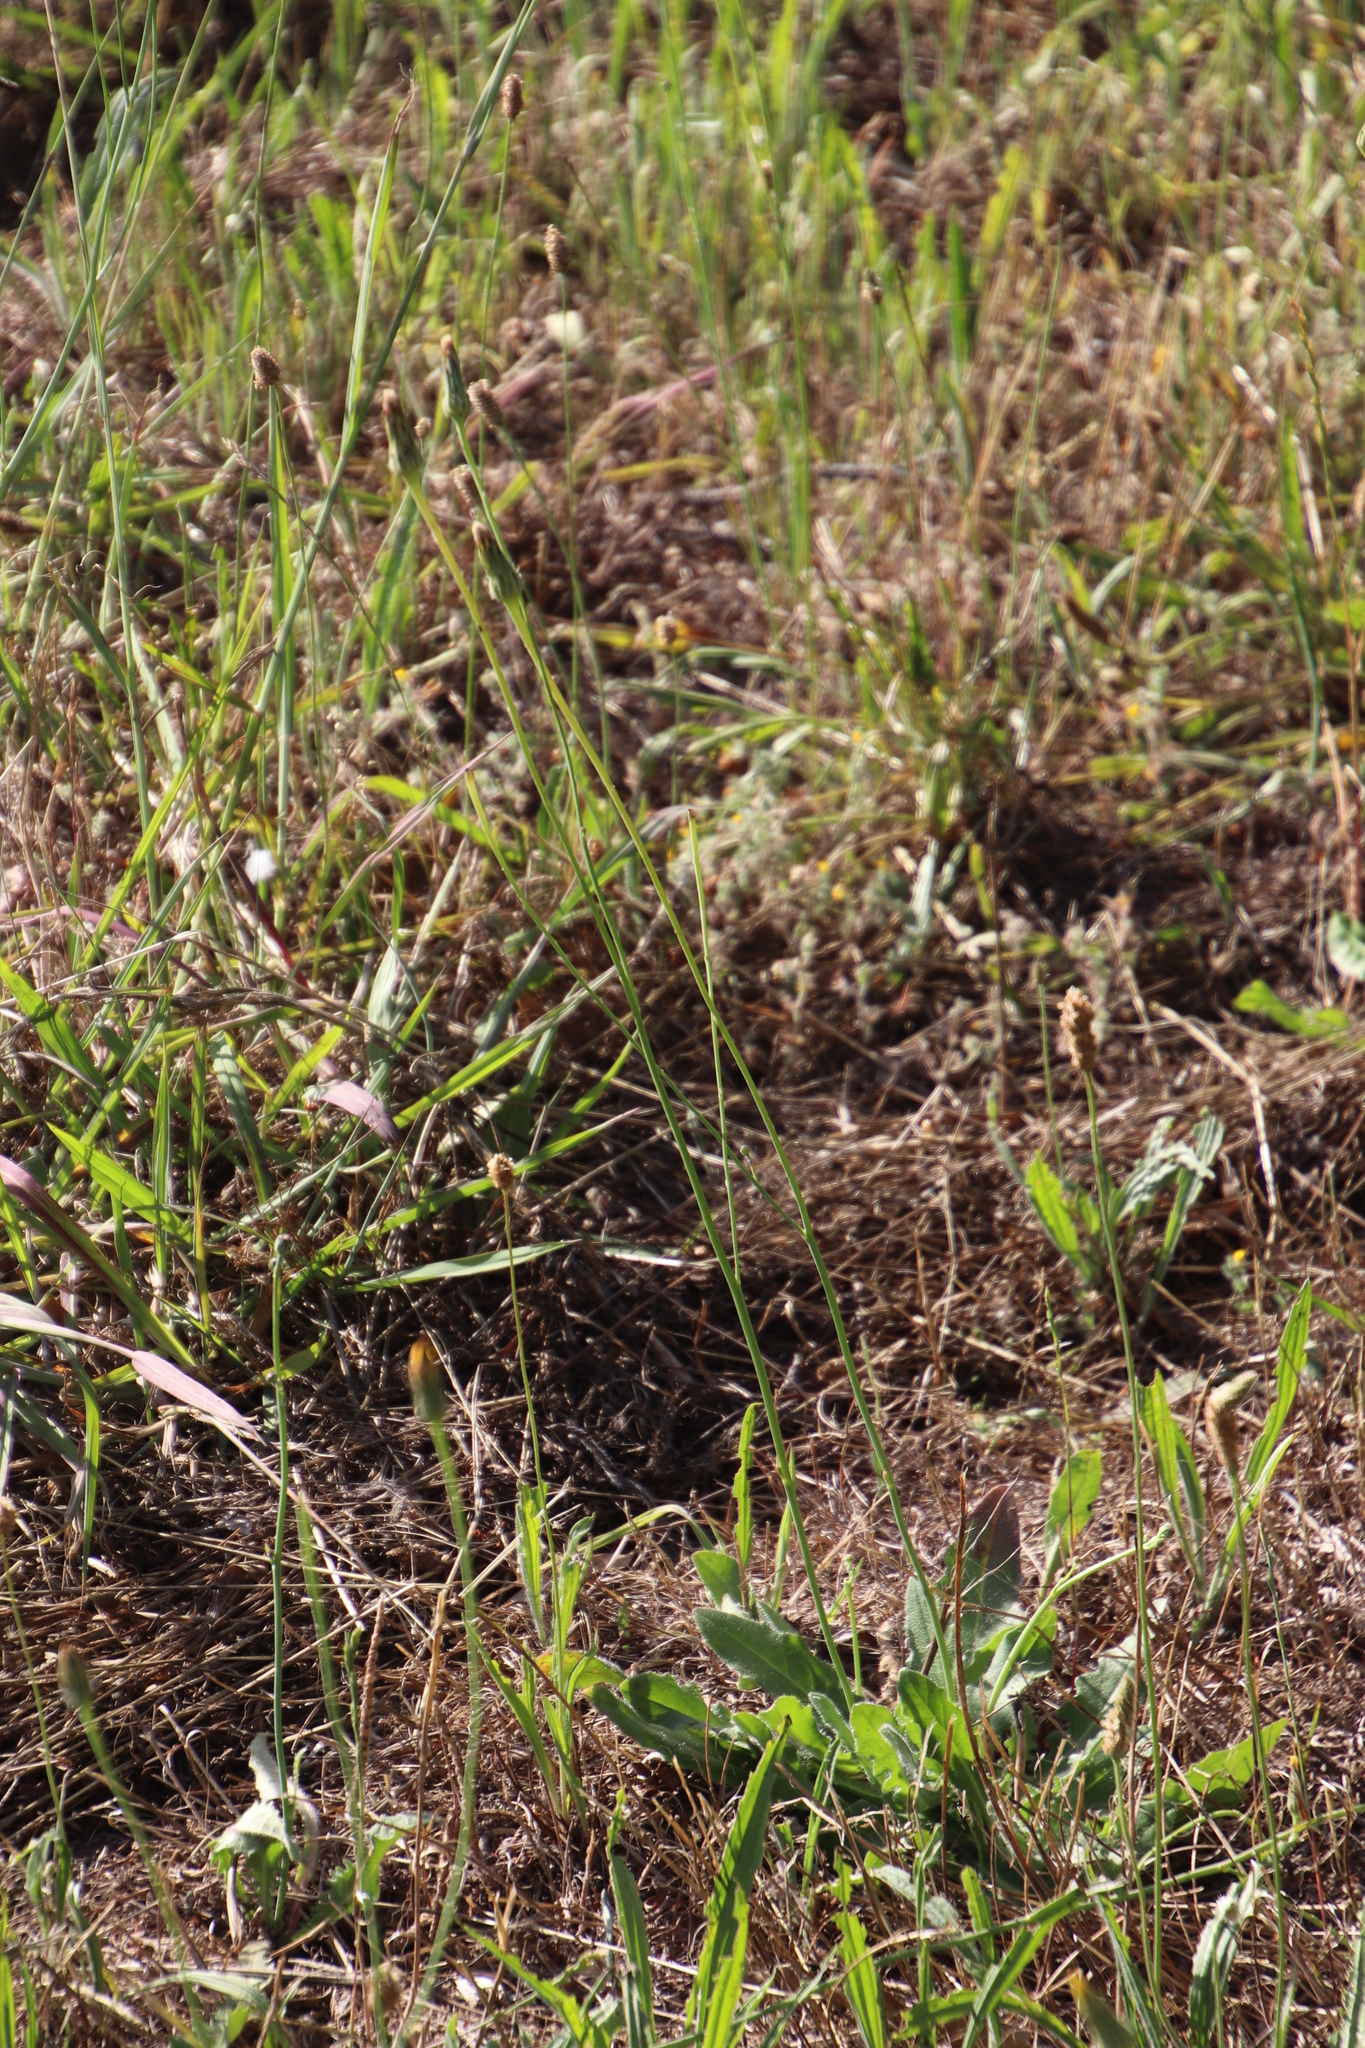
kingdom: Plantae
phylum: Tracheophyta
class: Magnoliopsida
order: Asterales
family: Asteraceae
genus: Hypochaeris
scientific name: Hypochaeris radicata
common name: Flatweed
